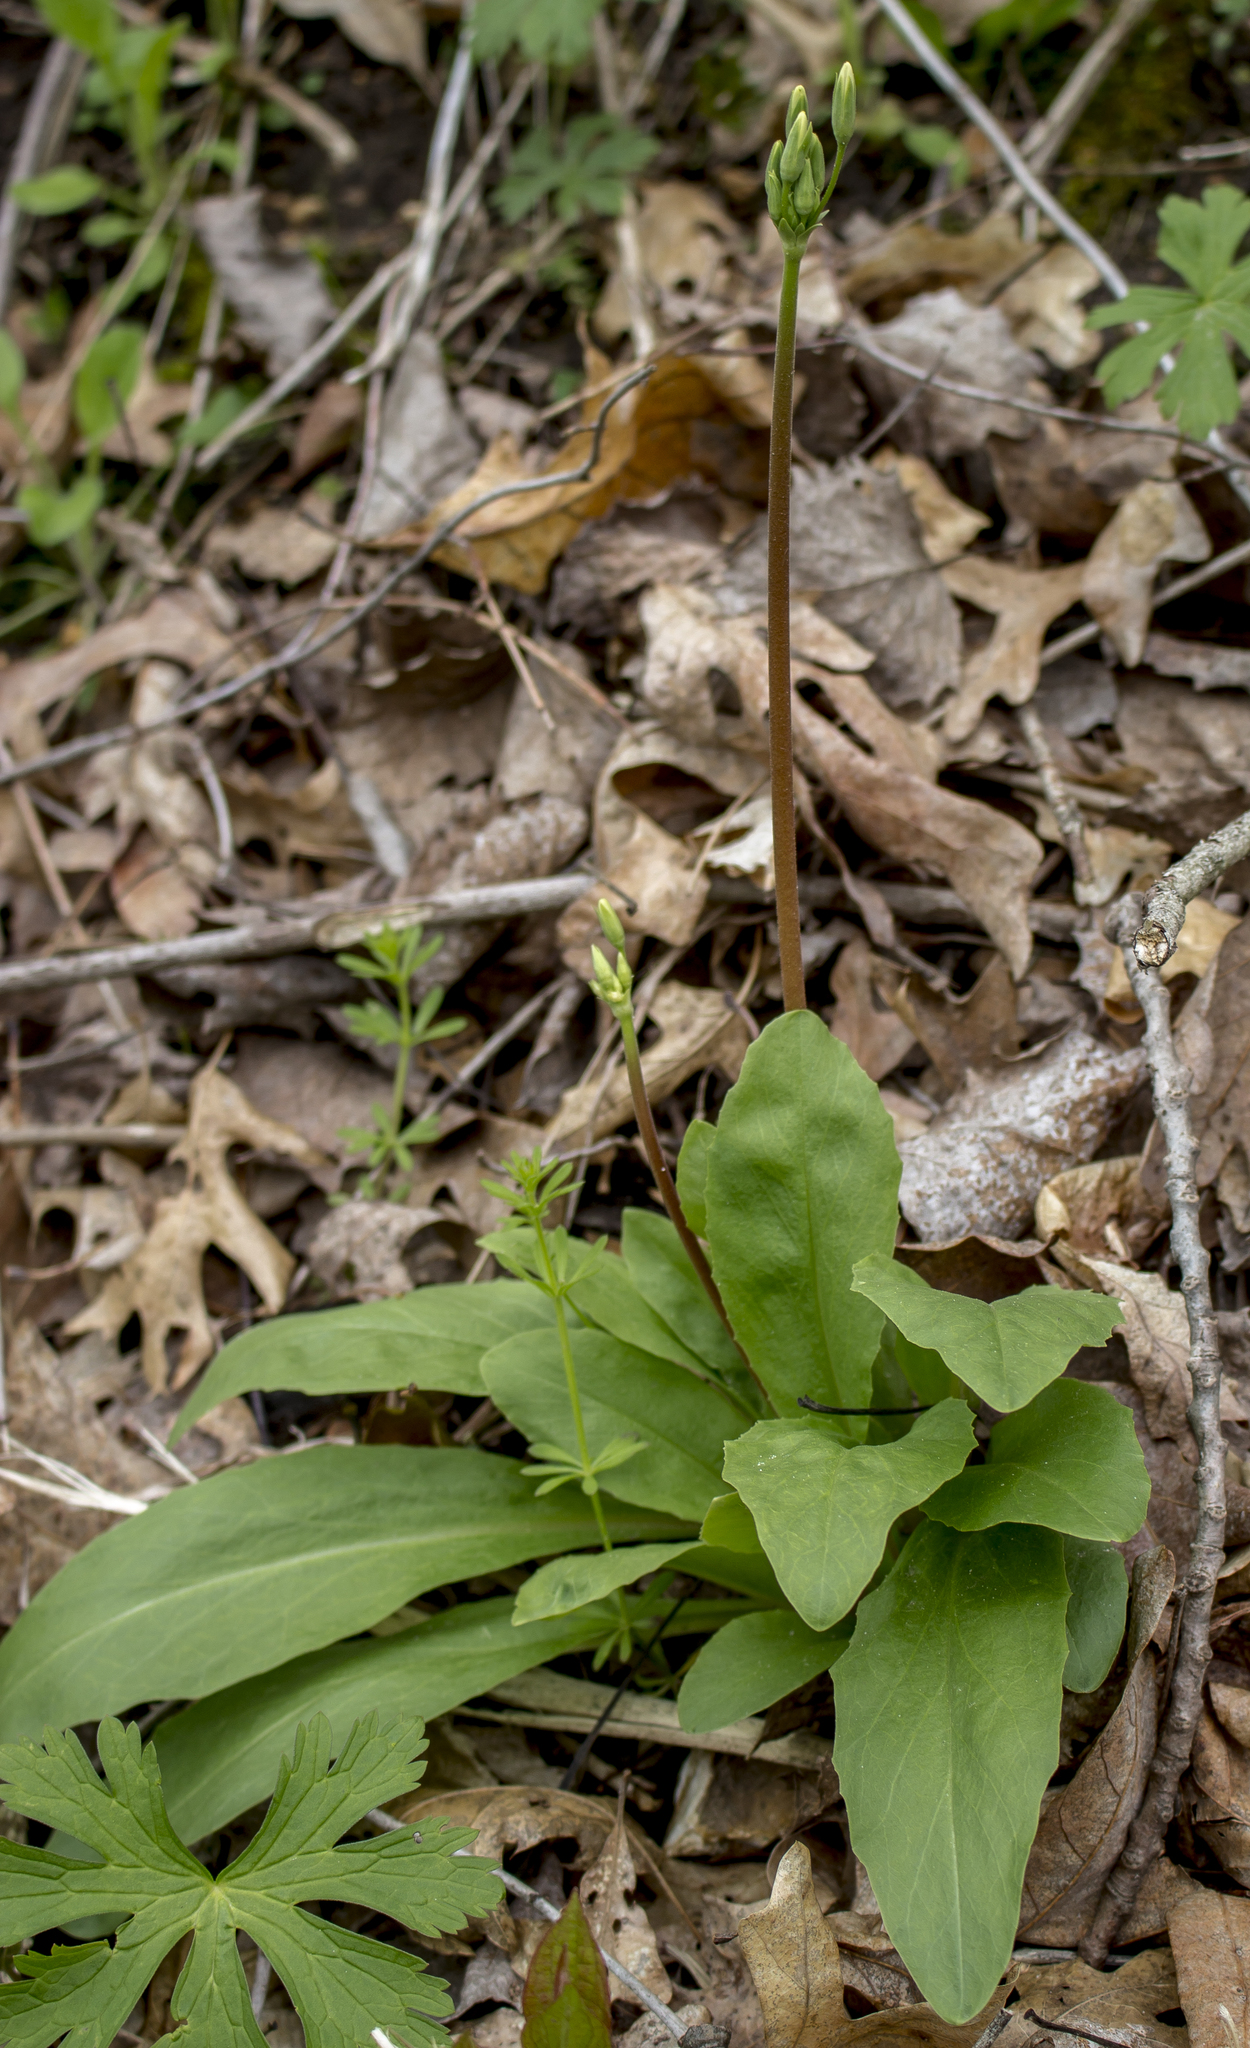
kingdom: Plantae
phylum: Tracheophyta
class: Magnoliopsida
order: Ericales
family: Primulaceae
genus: Dodecatheon
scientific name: Dodecatheon meadia
